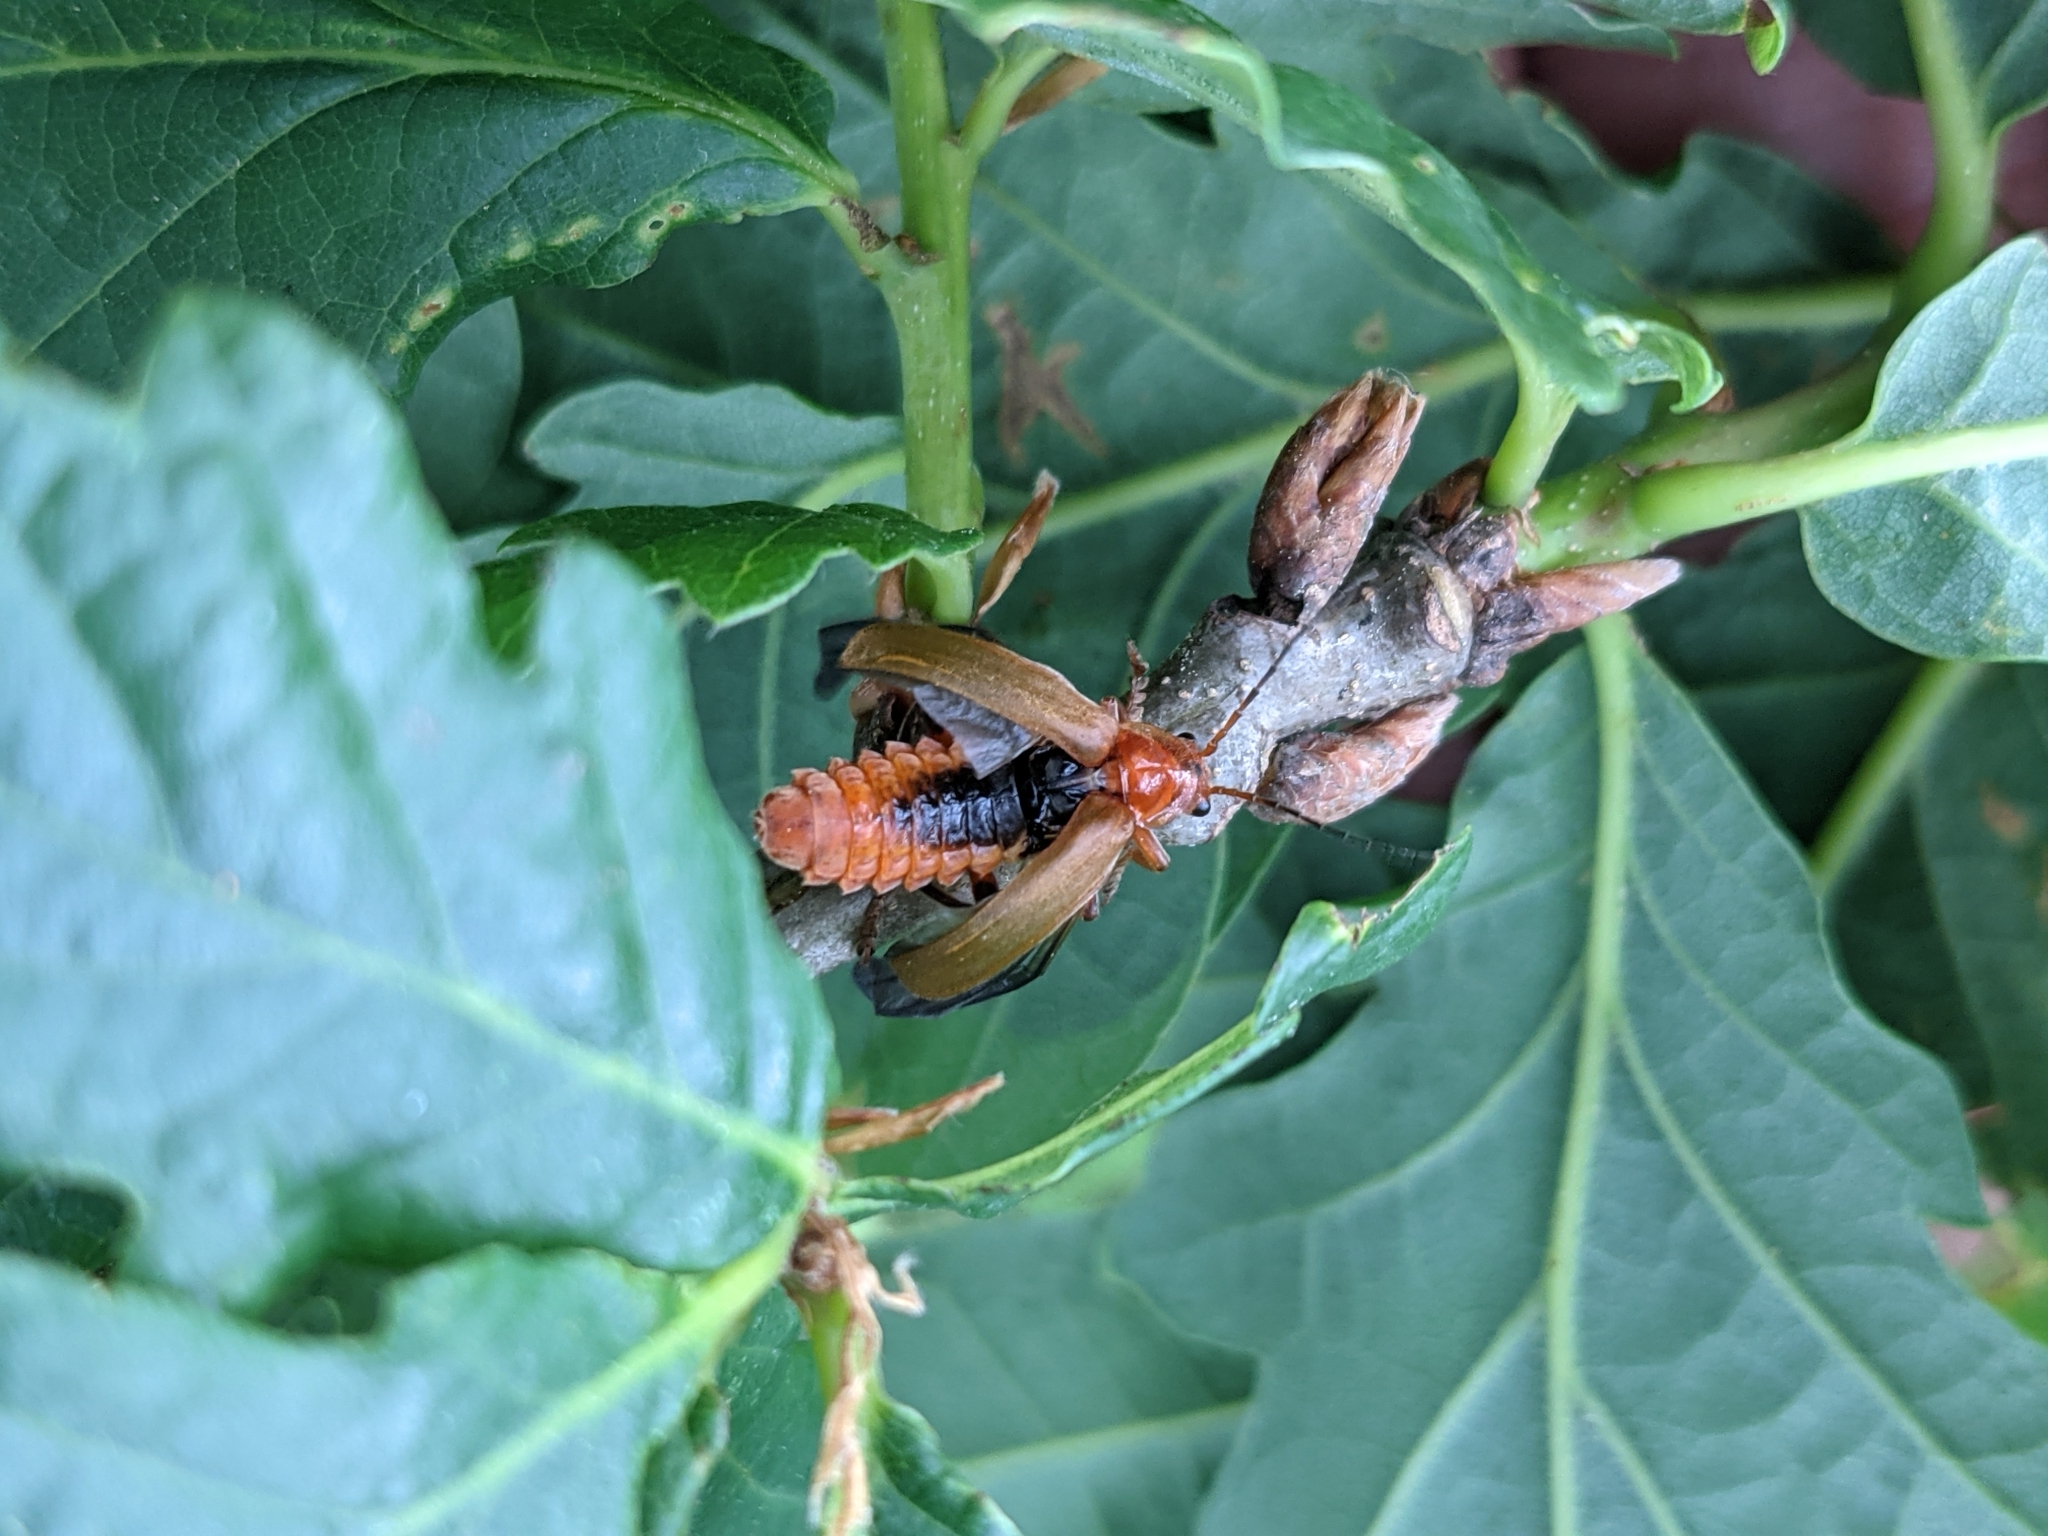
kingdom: Animalia
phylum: Arthropoda
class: Insecta
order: Coleoptera
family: Cantharidae
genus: Cantharis
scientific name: Cantharis livida
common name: Livid soldier beetle
